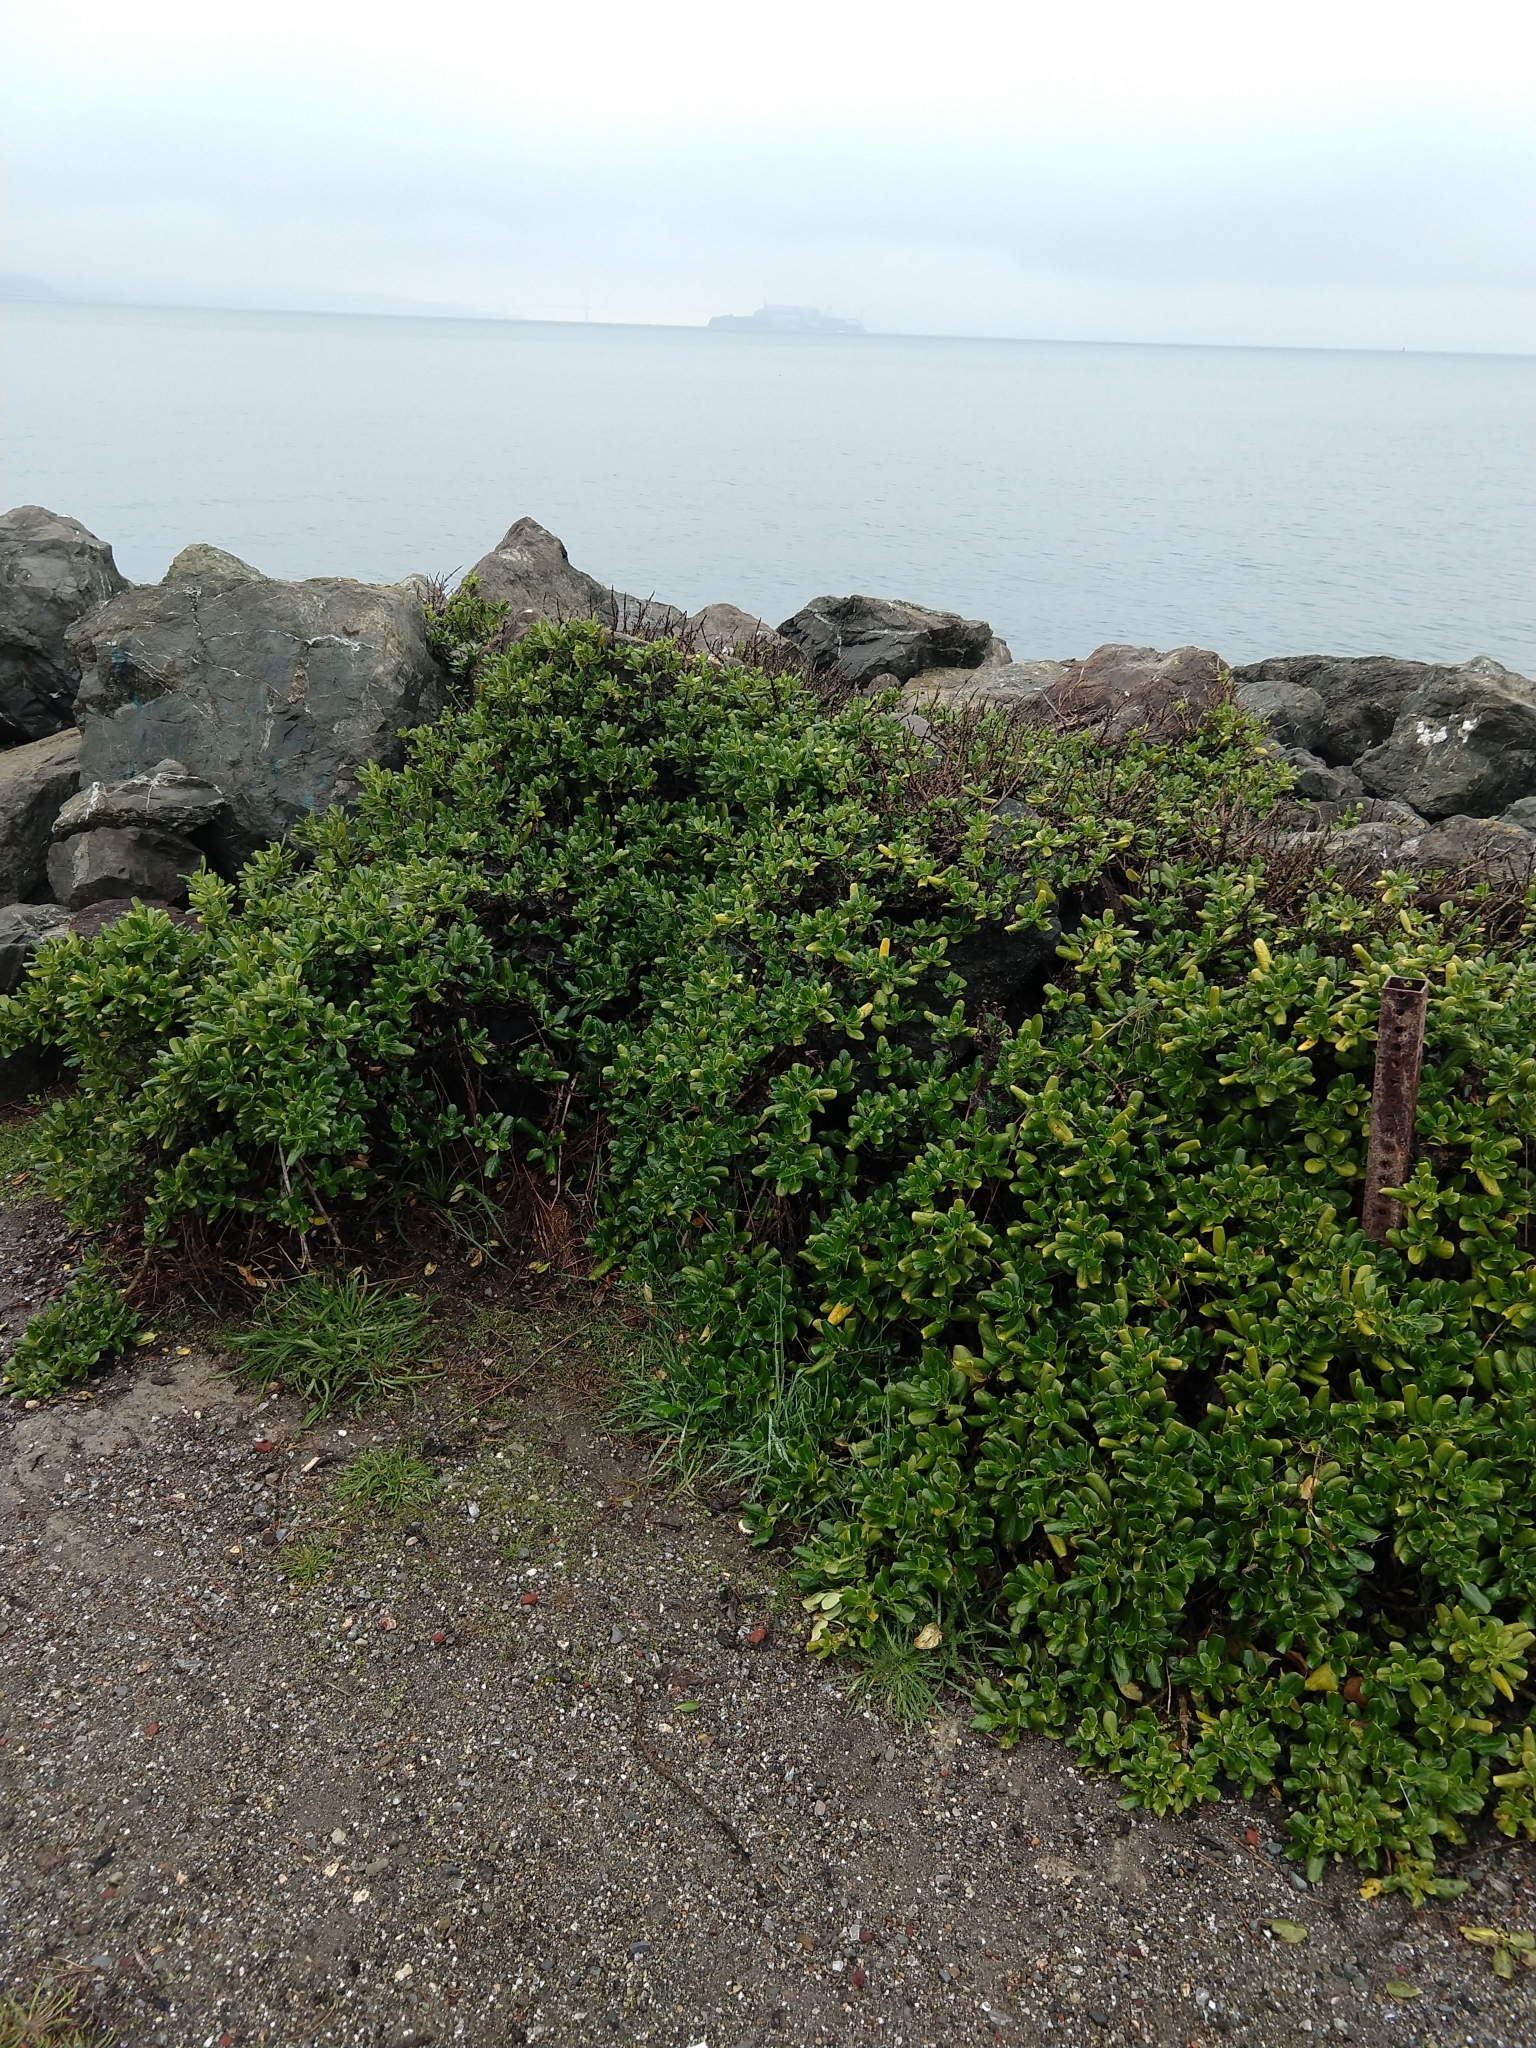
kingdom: Plantae
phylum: Tracheophyta
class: Magnoliopsida
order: Gentianales
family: Rubiaceae
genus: Coprosma
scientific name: Coprosma repens
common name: Tree bedstraw
